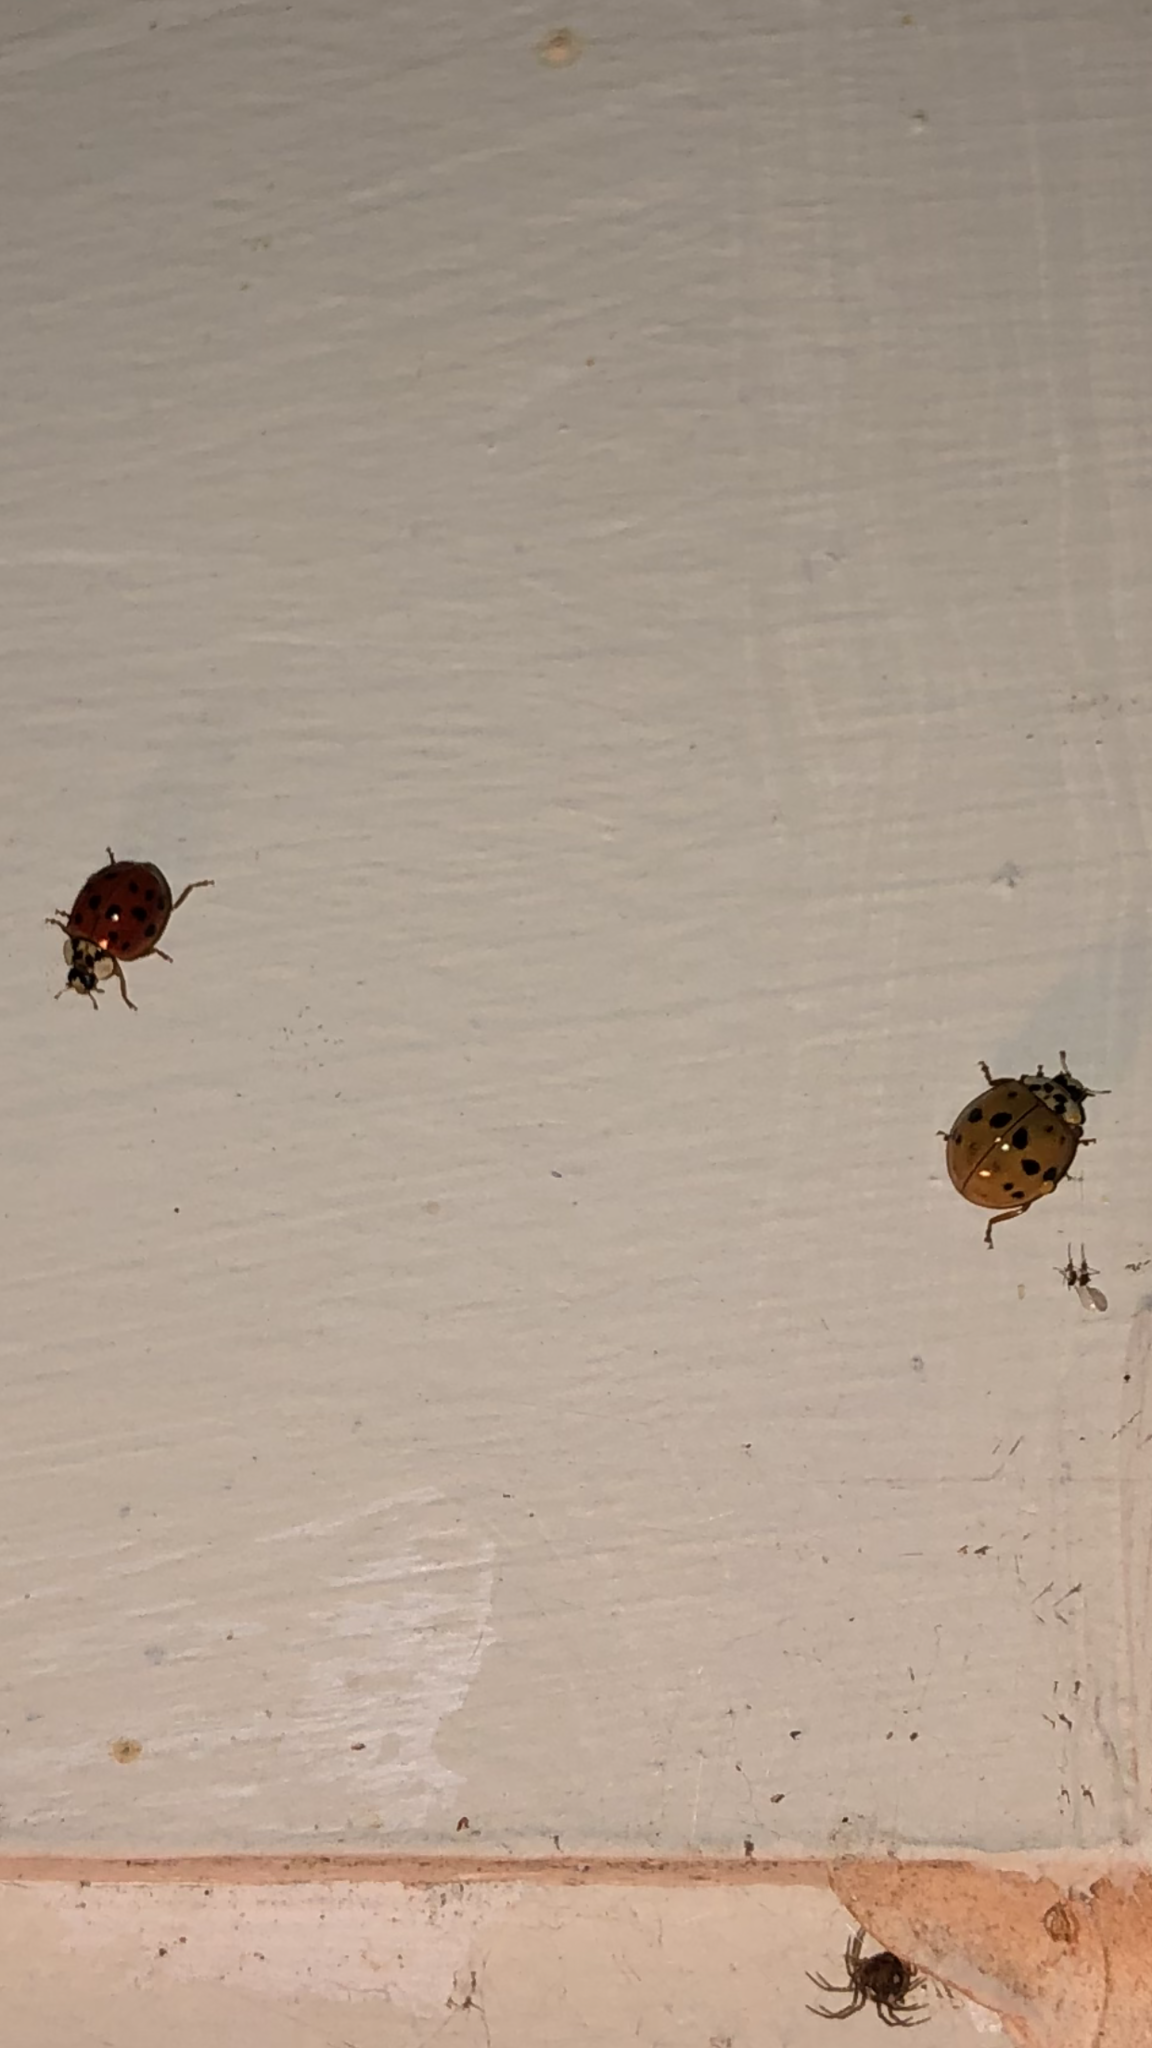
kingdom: Animalia
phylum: Arthropoda
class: Insecta
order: Coleoptera
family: Coccinellidae
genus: Harmonia
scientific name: Harmonia axyridis
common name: Harlequin ladybird
